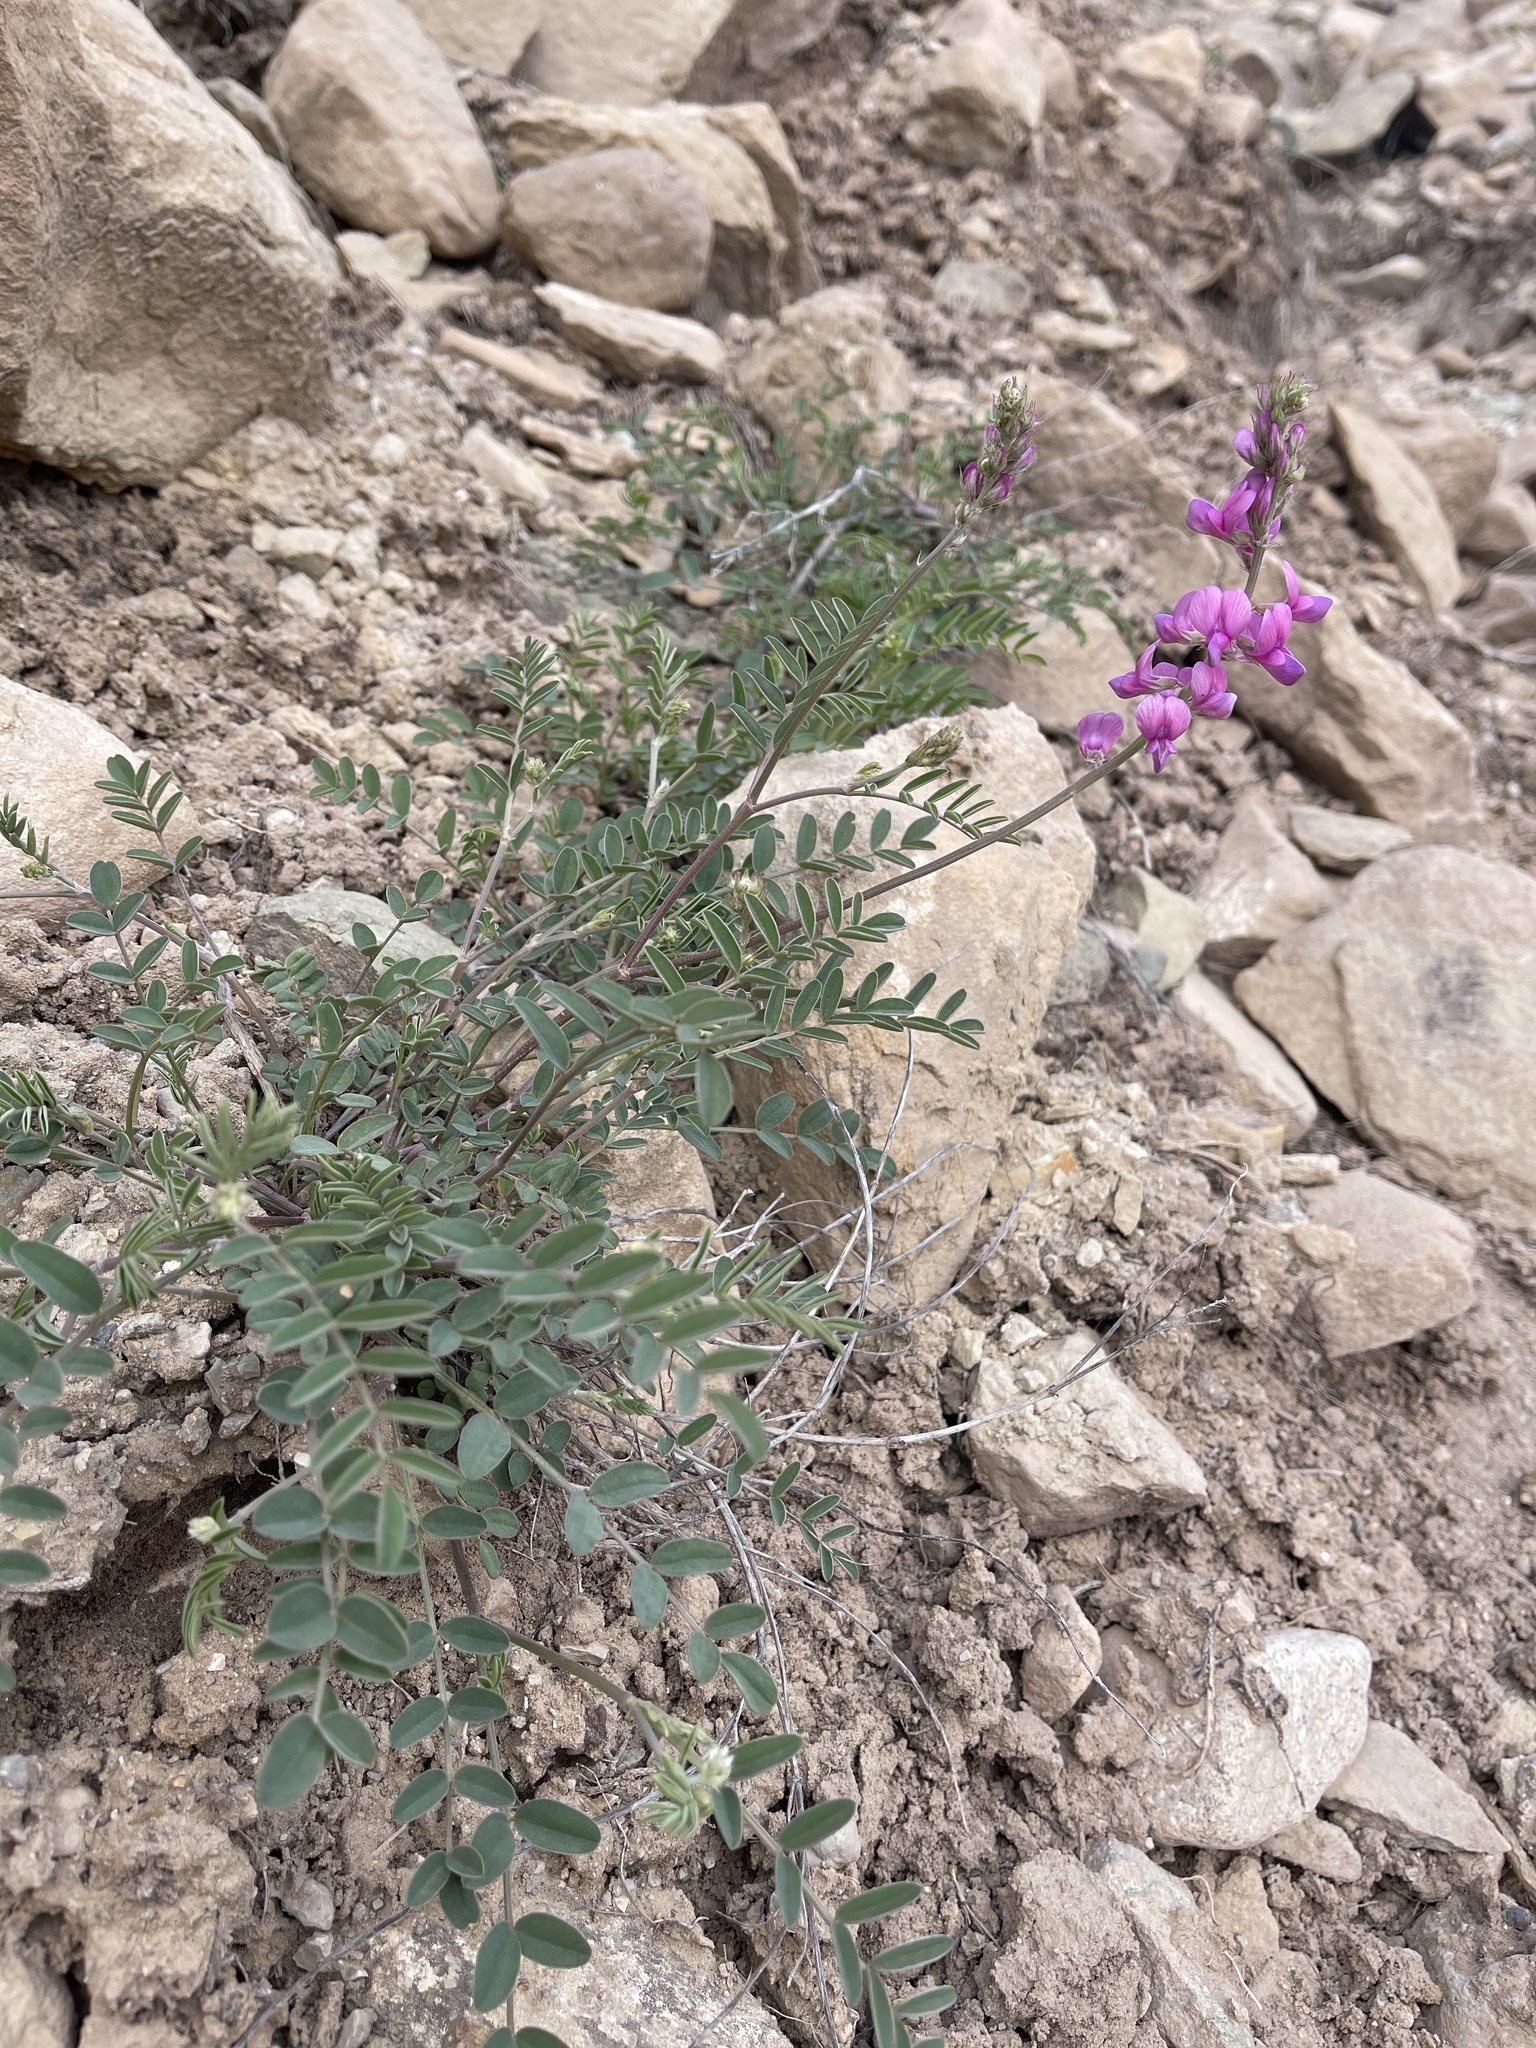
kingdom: Plantae
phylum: Tracheophyta
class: Magnoliopsida
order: Fabales
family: Fabaceae
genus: Hedysarum
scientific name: Hedysarum boreale
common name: Northern sweet-vetch
